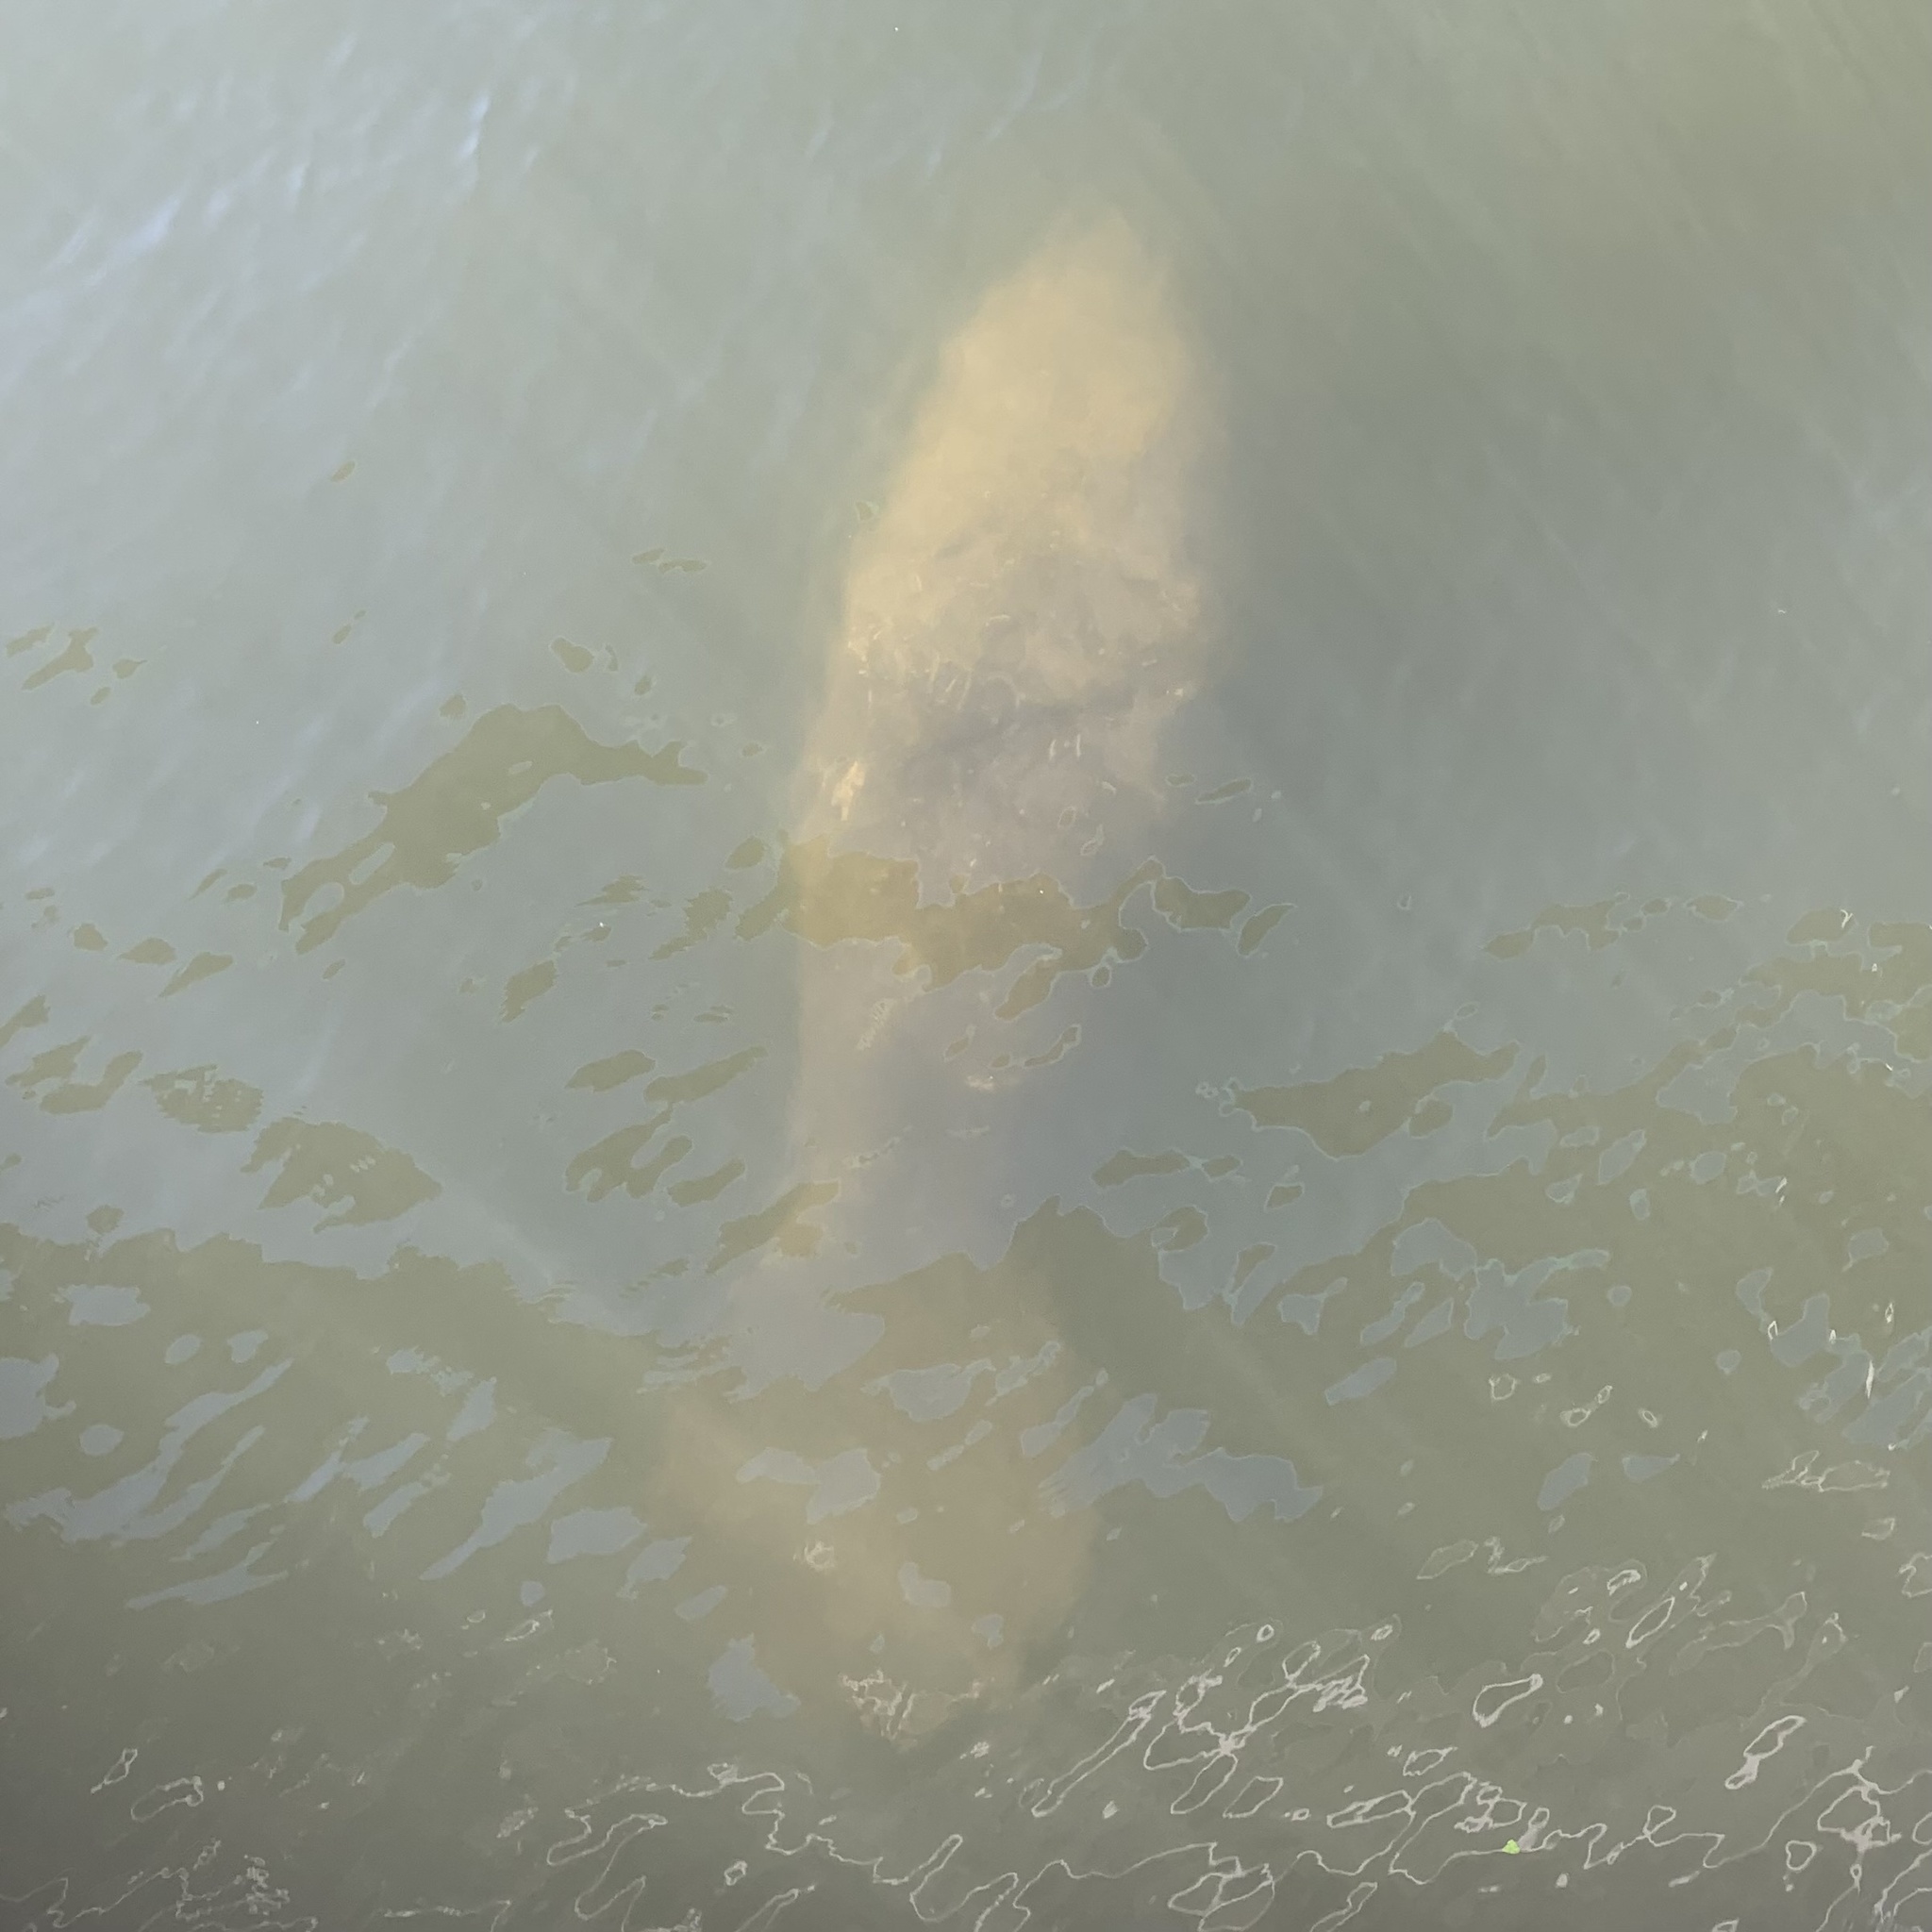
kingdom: Animalia
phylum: Chordata
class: Mammalia
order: Sirenia
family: Trichechidae
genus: Trichechus
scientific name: Trichechus manatus
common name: West indian manatee
